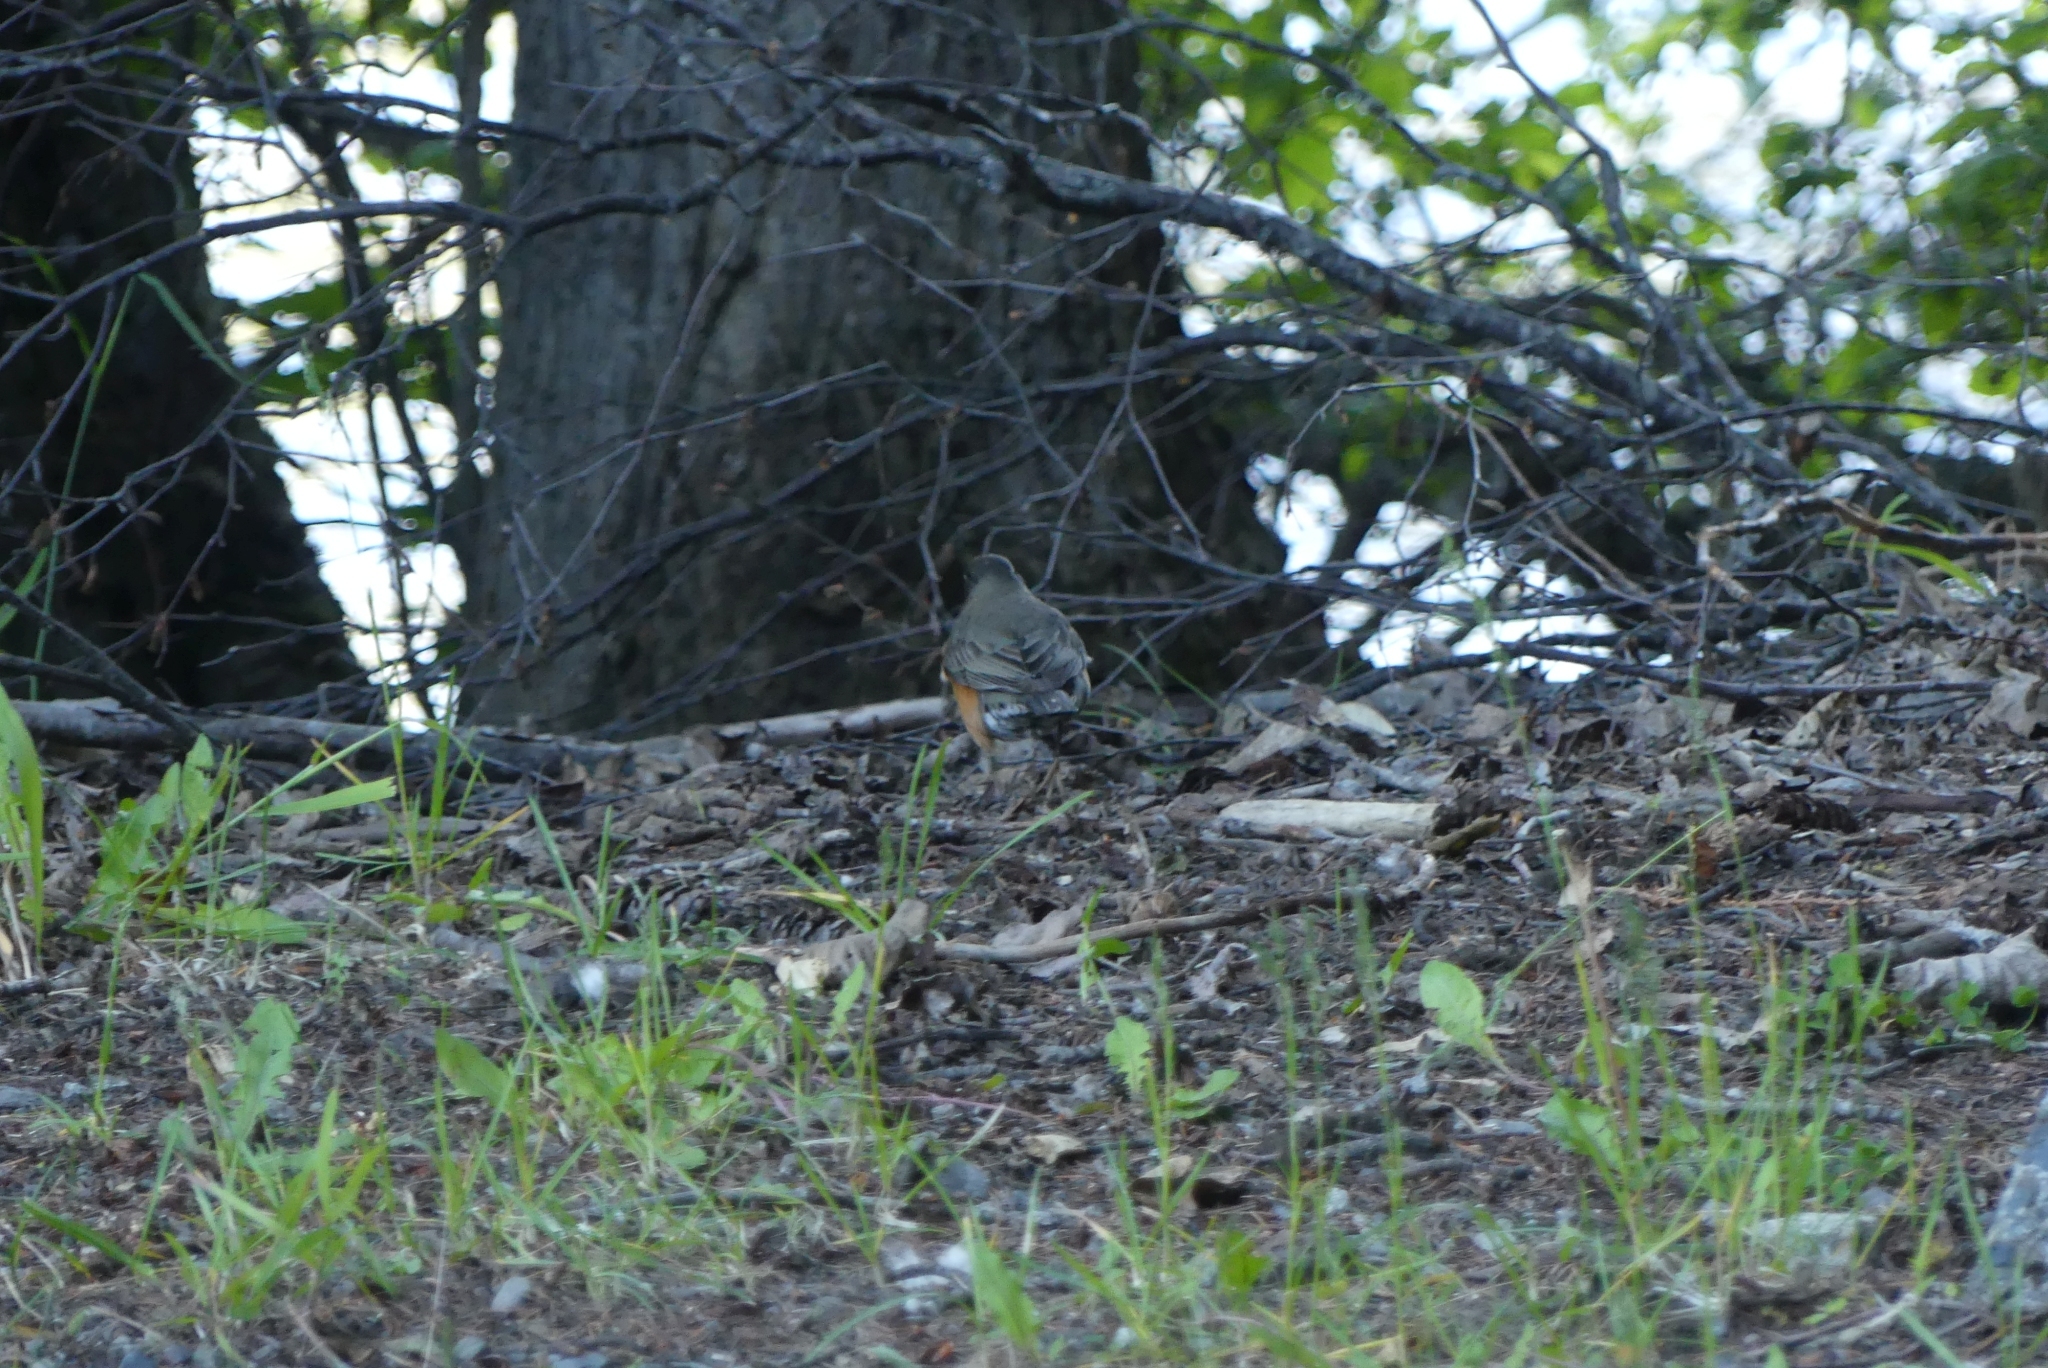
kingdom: Animalia
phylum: Chordata
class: Aves
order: Passeriformes
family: Turdidae
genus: Turdus
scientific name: Turdus migratorius
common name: American robin
